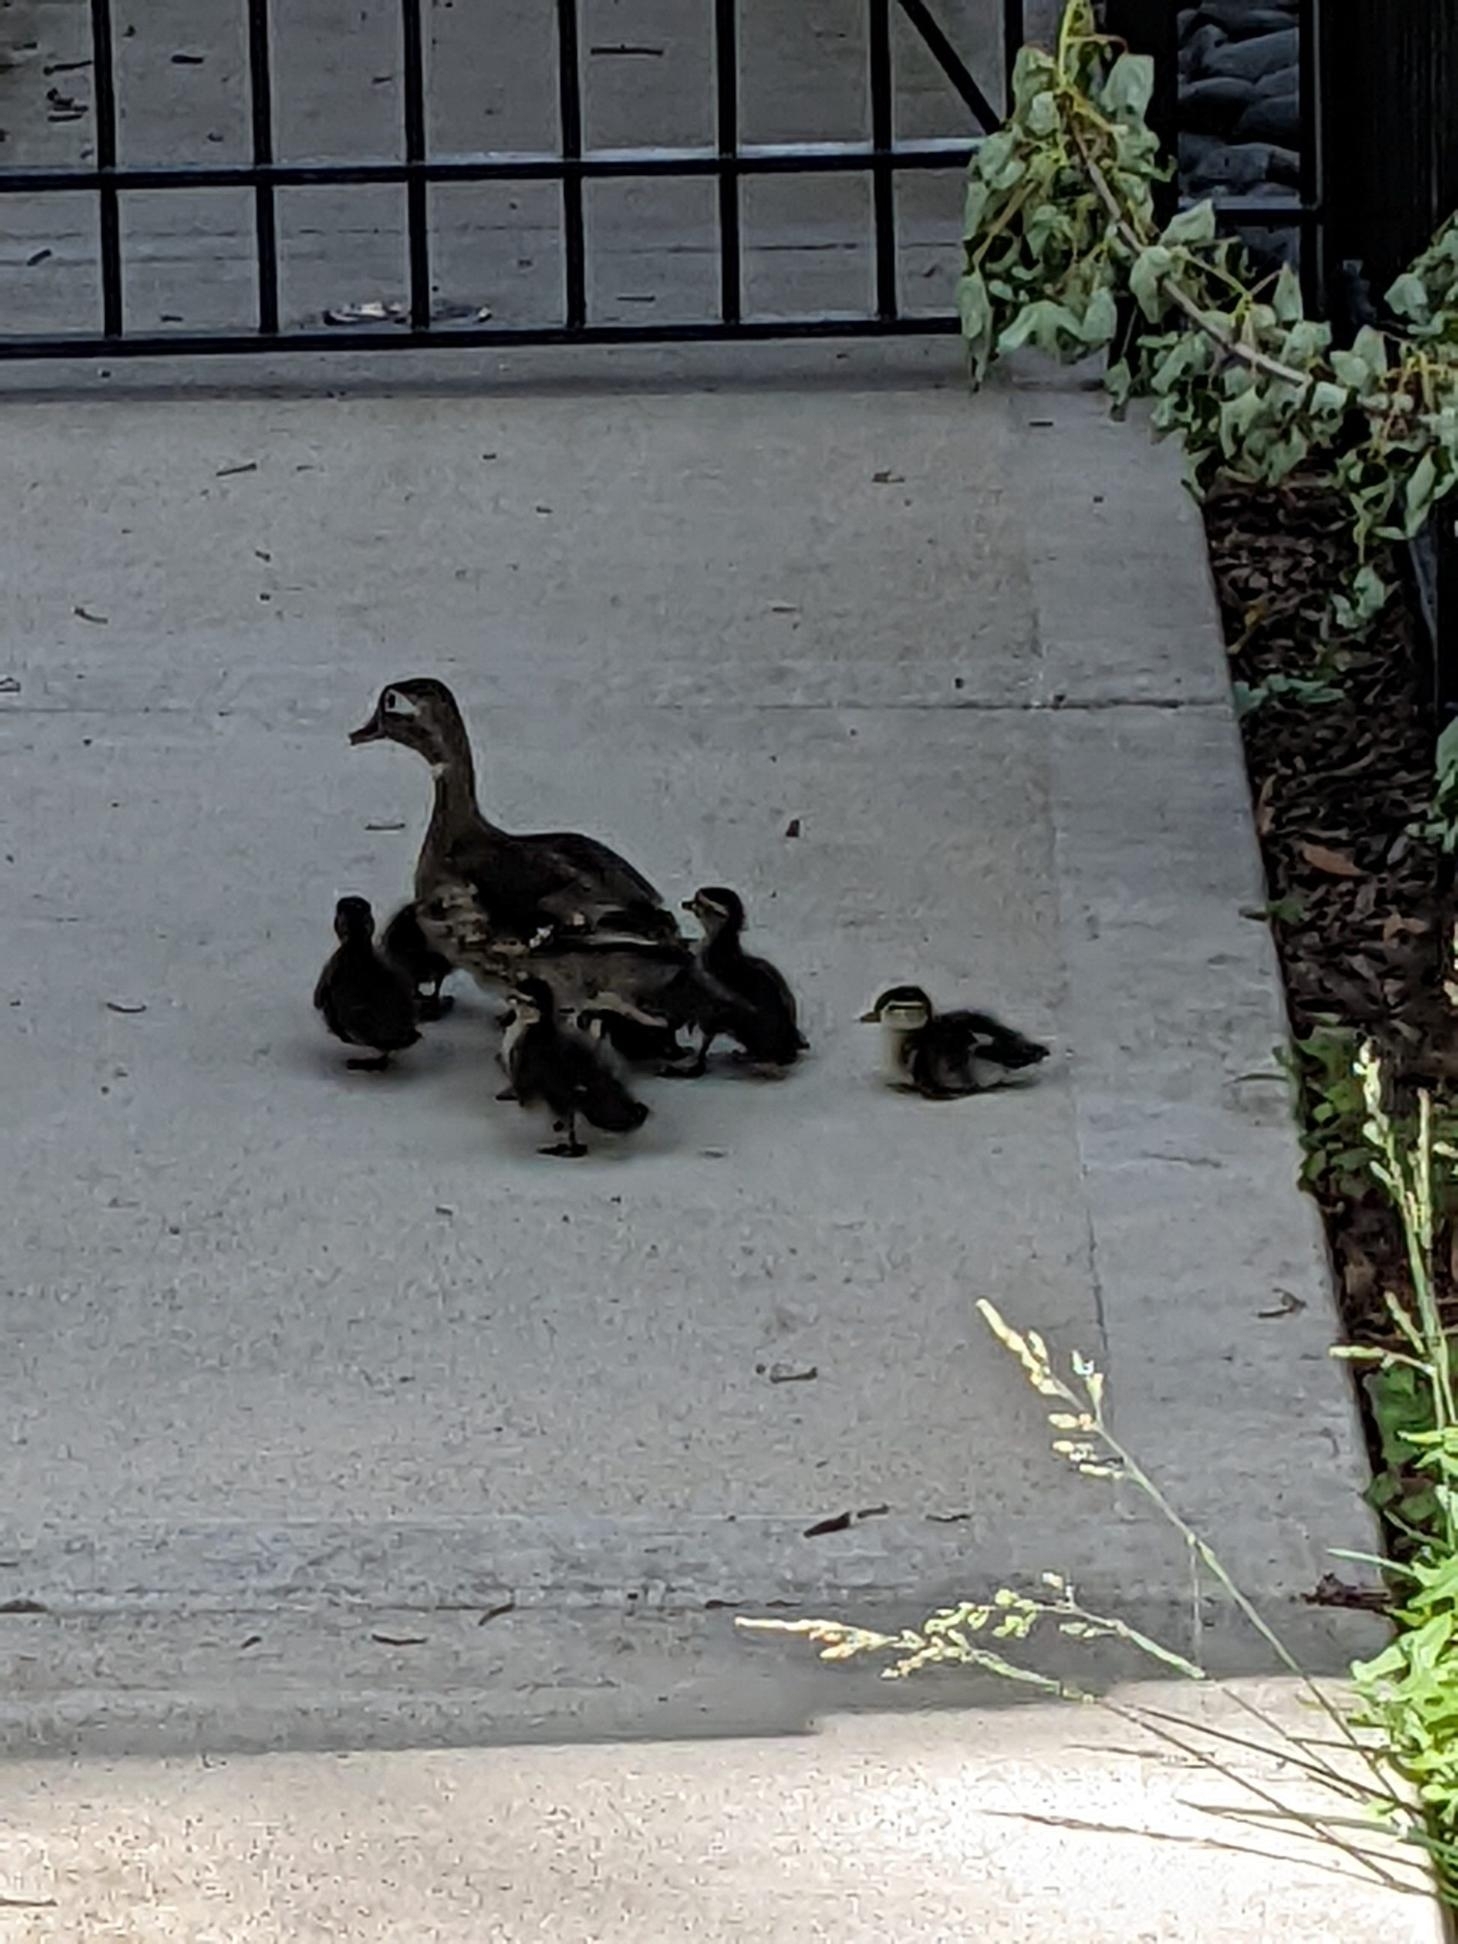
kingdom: Animalia
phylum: Chordata
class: Aves
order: Anseriformes
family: Anatidae
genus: Aix
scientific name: Aix sponsa
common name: Wood duck
